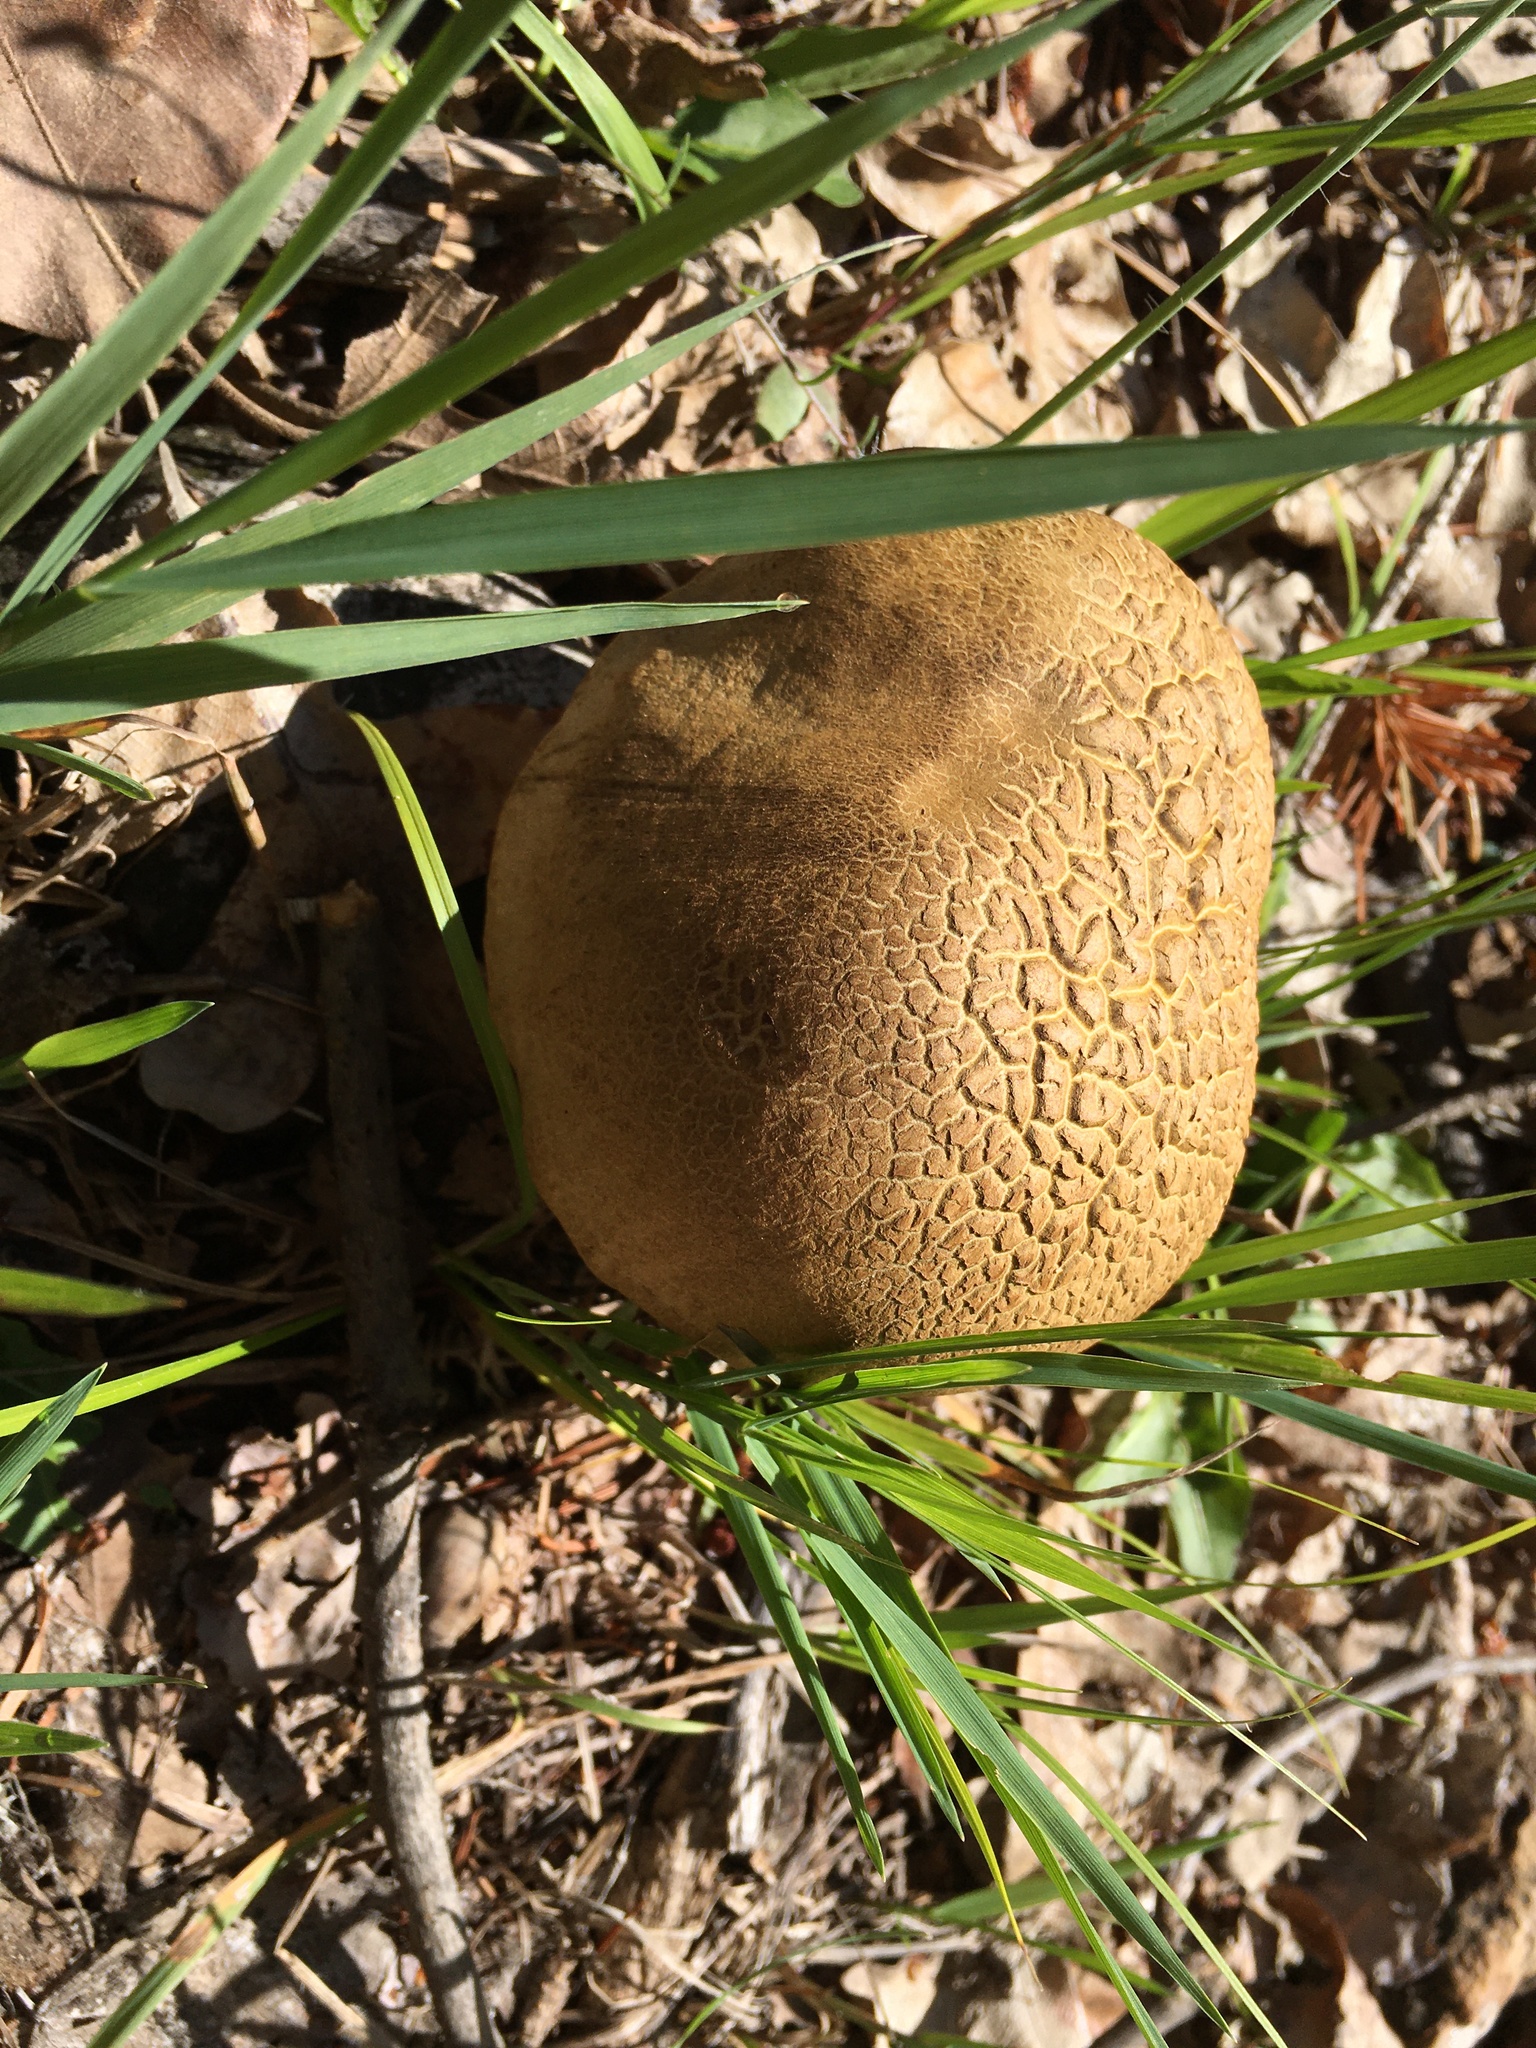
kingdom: Fungi
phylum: Basidiomycota
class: Agaricomycetes
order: Boletales
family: Boletaceae
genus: Caloboletus
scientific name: Caloboletus rubripes
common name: Red-footed bitter bolete
